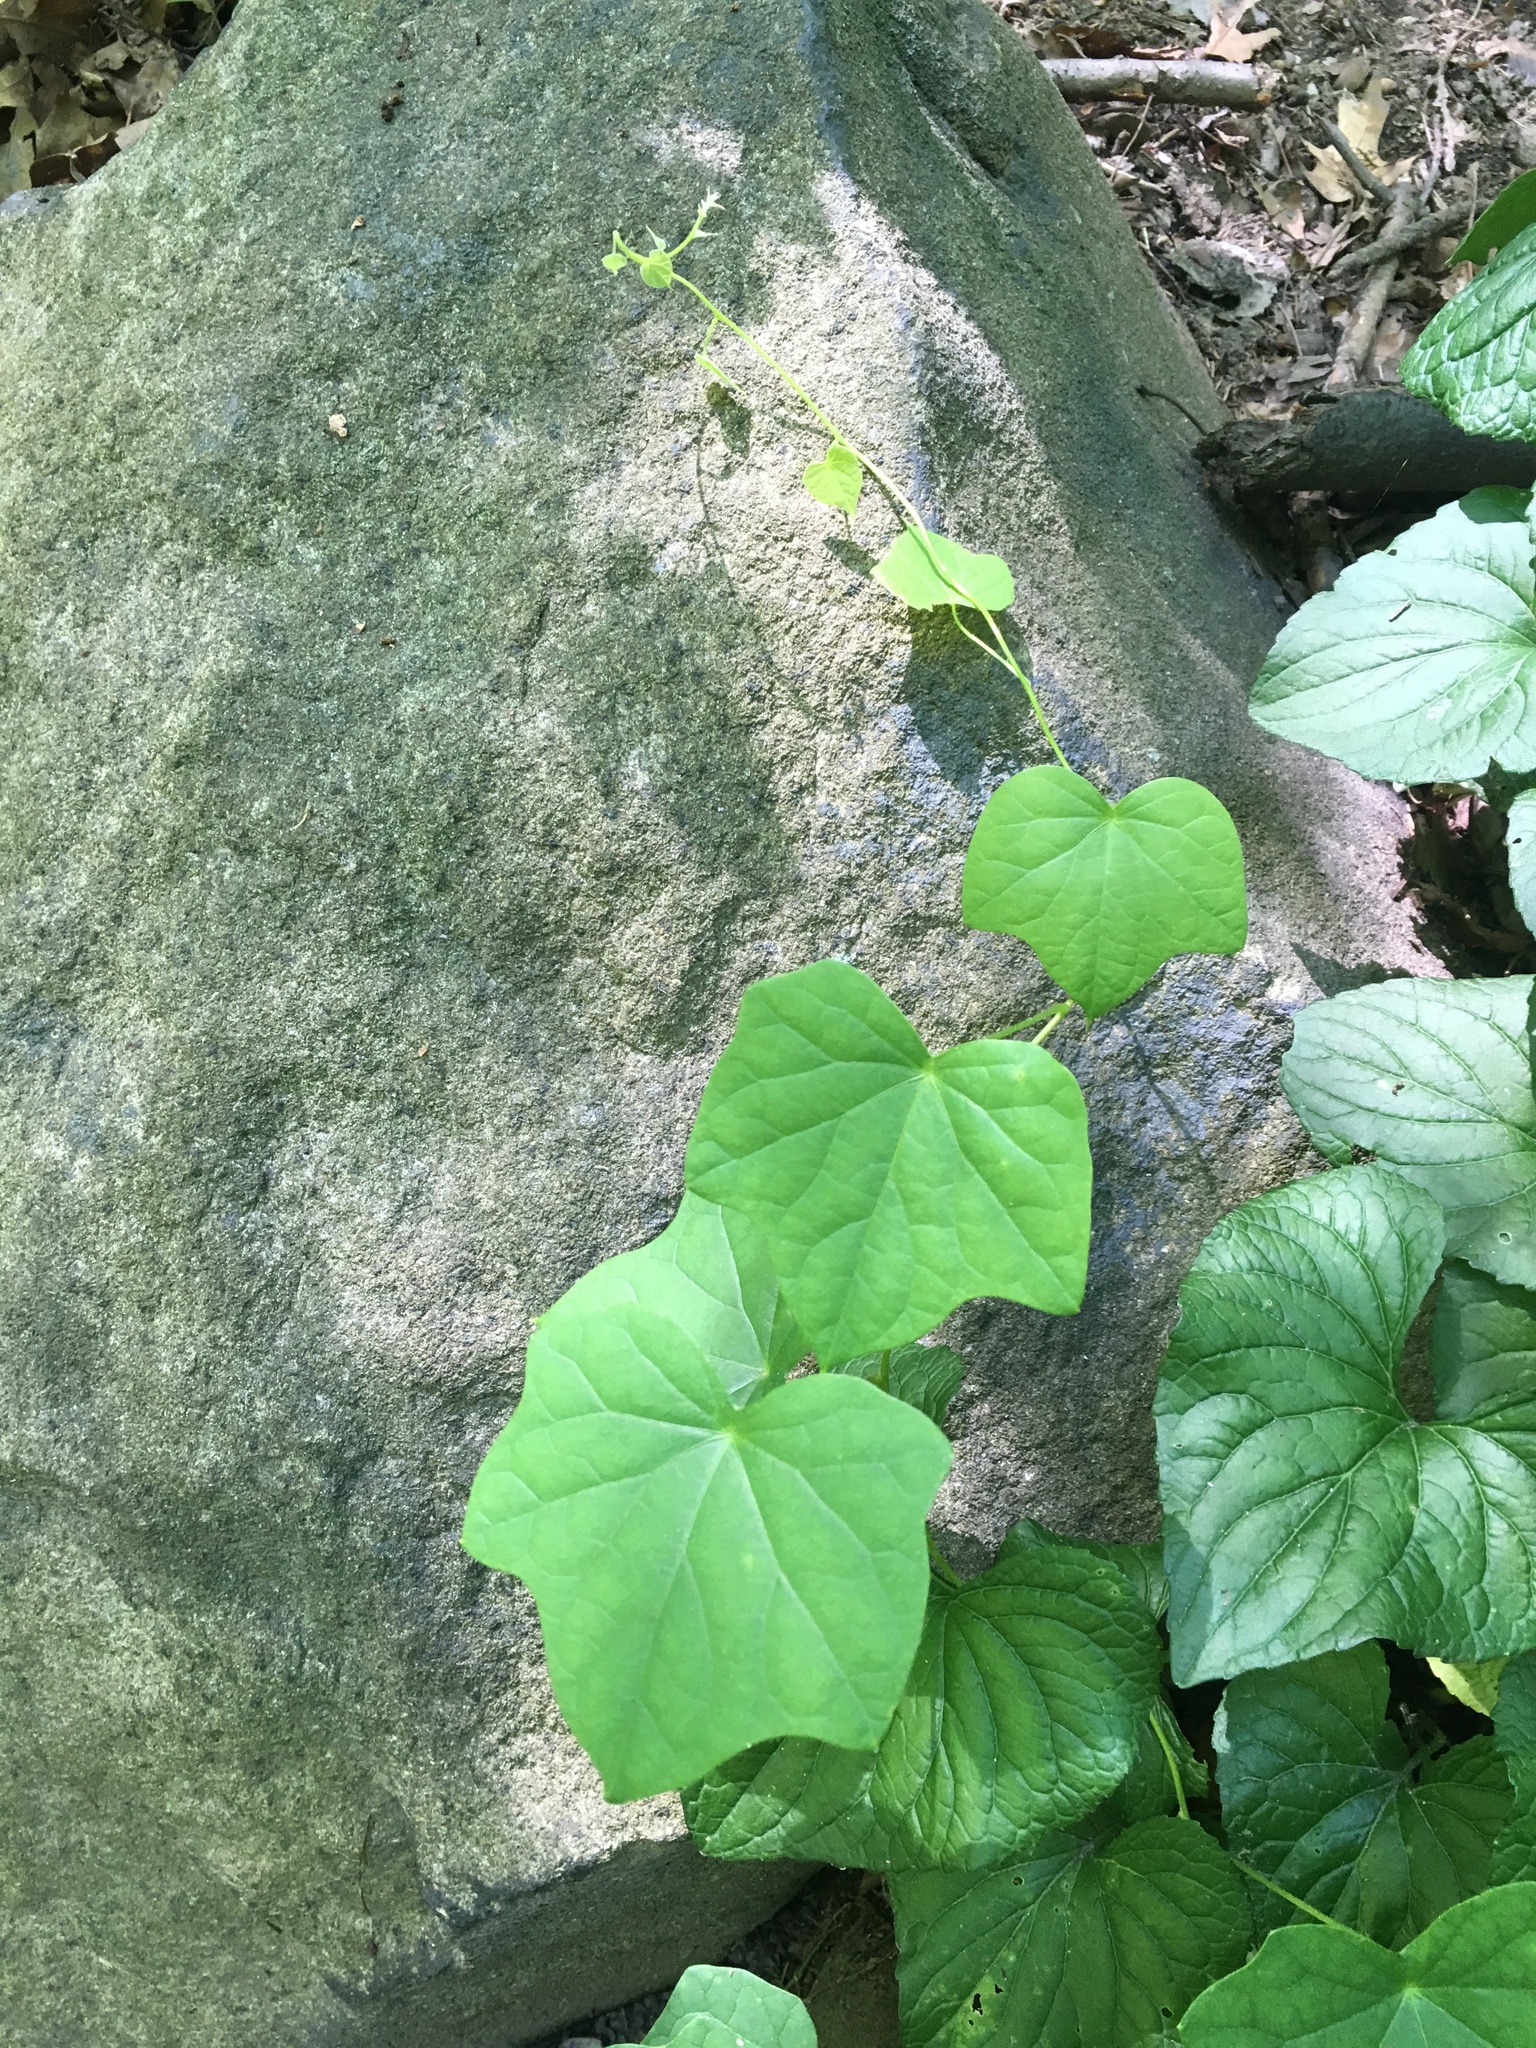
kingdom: Plantae
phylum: Tracheophyta
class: Magnoliopsida
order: Ranunculales
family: Menispermaceae
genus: Menispermum
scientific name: Menispermum canadense
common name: Moonseed
